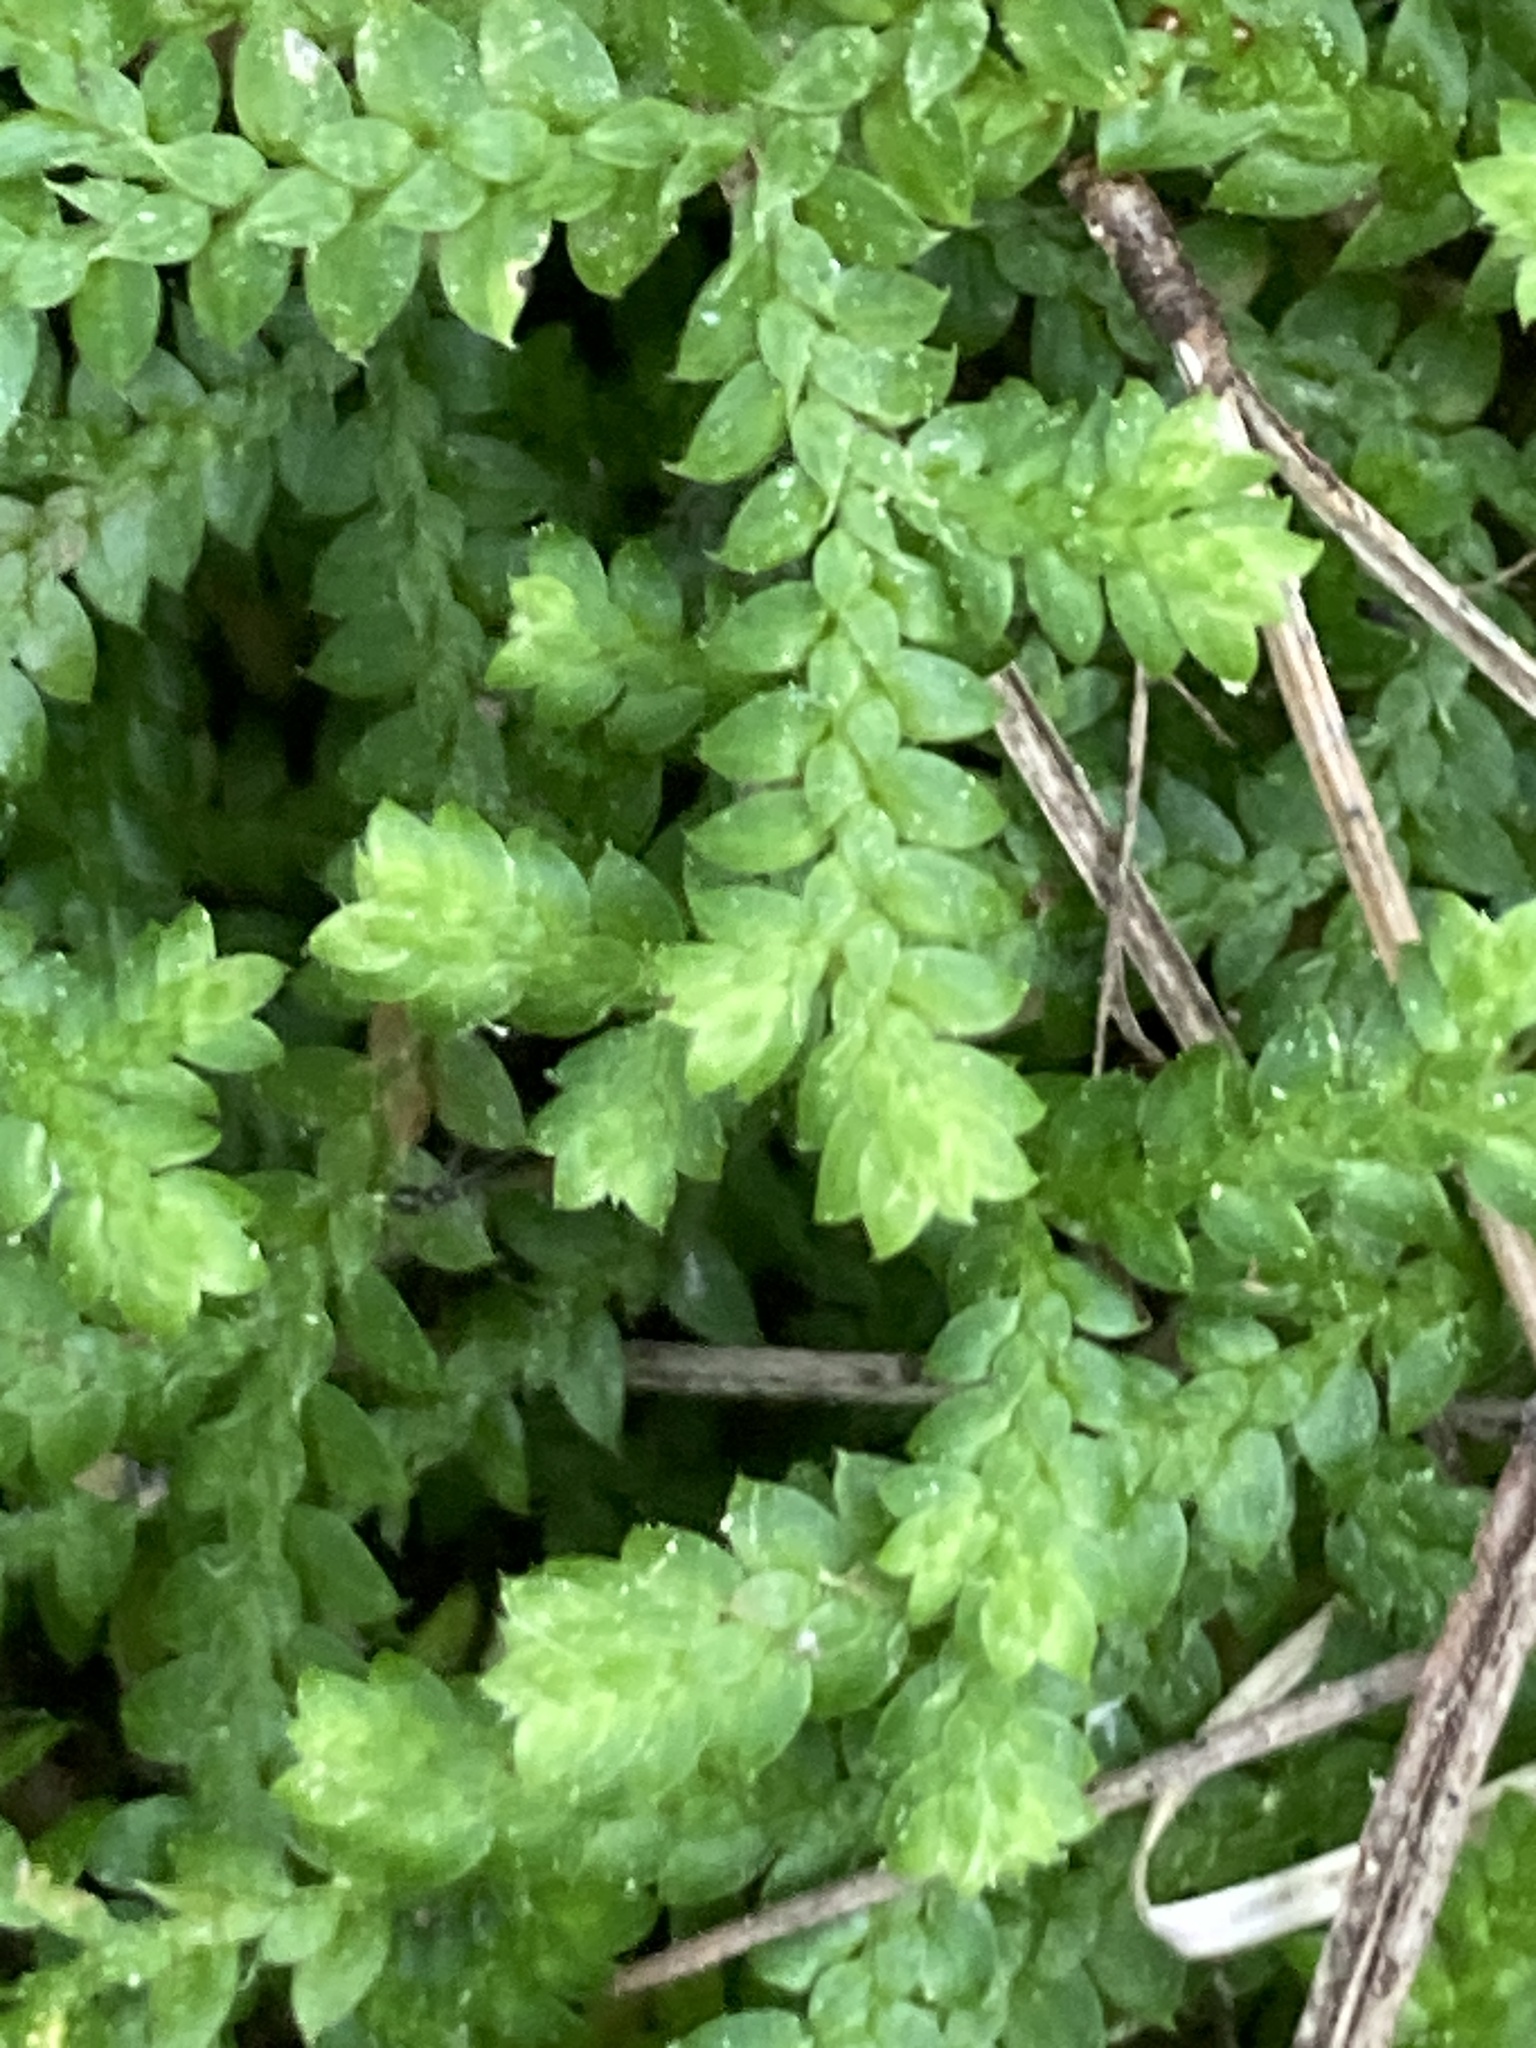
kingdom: Plantae
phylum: Tracheophyta
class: Lycopodiopsida
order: Selaginellales
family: Selaginellaceae
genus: Selaginella
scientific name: Selaginella denticulata
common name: Toothed-leaved clubmoss
